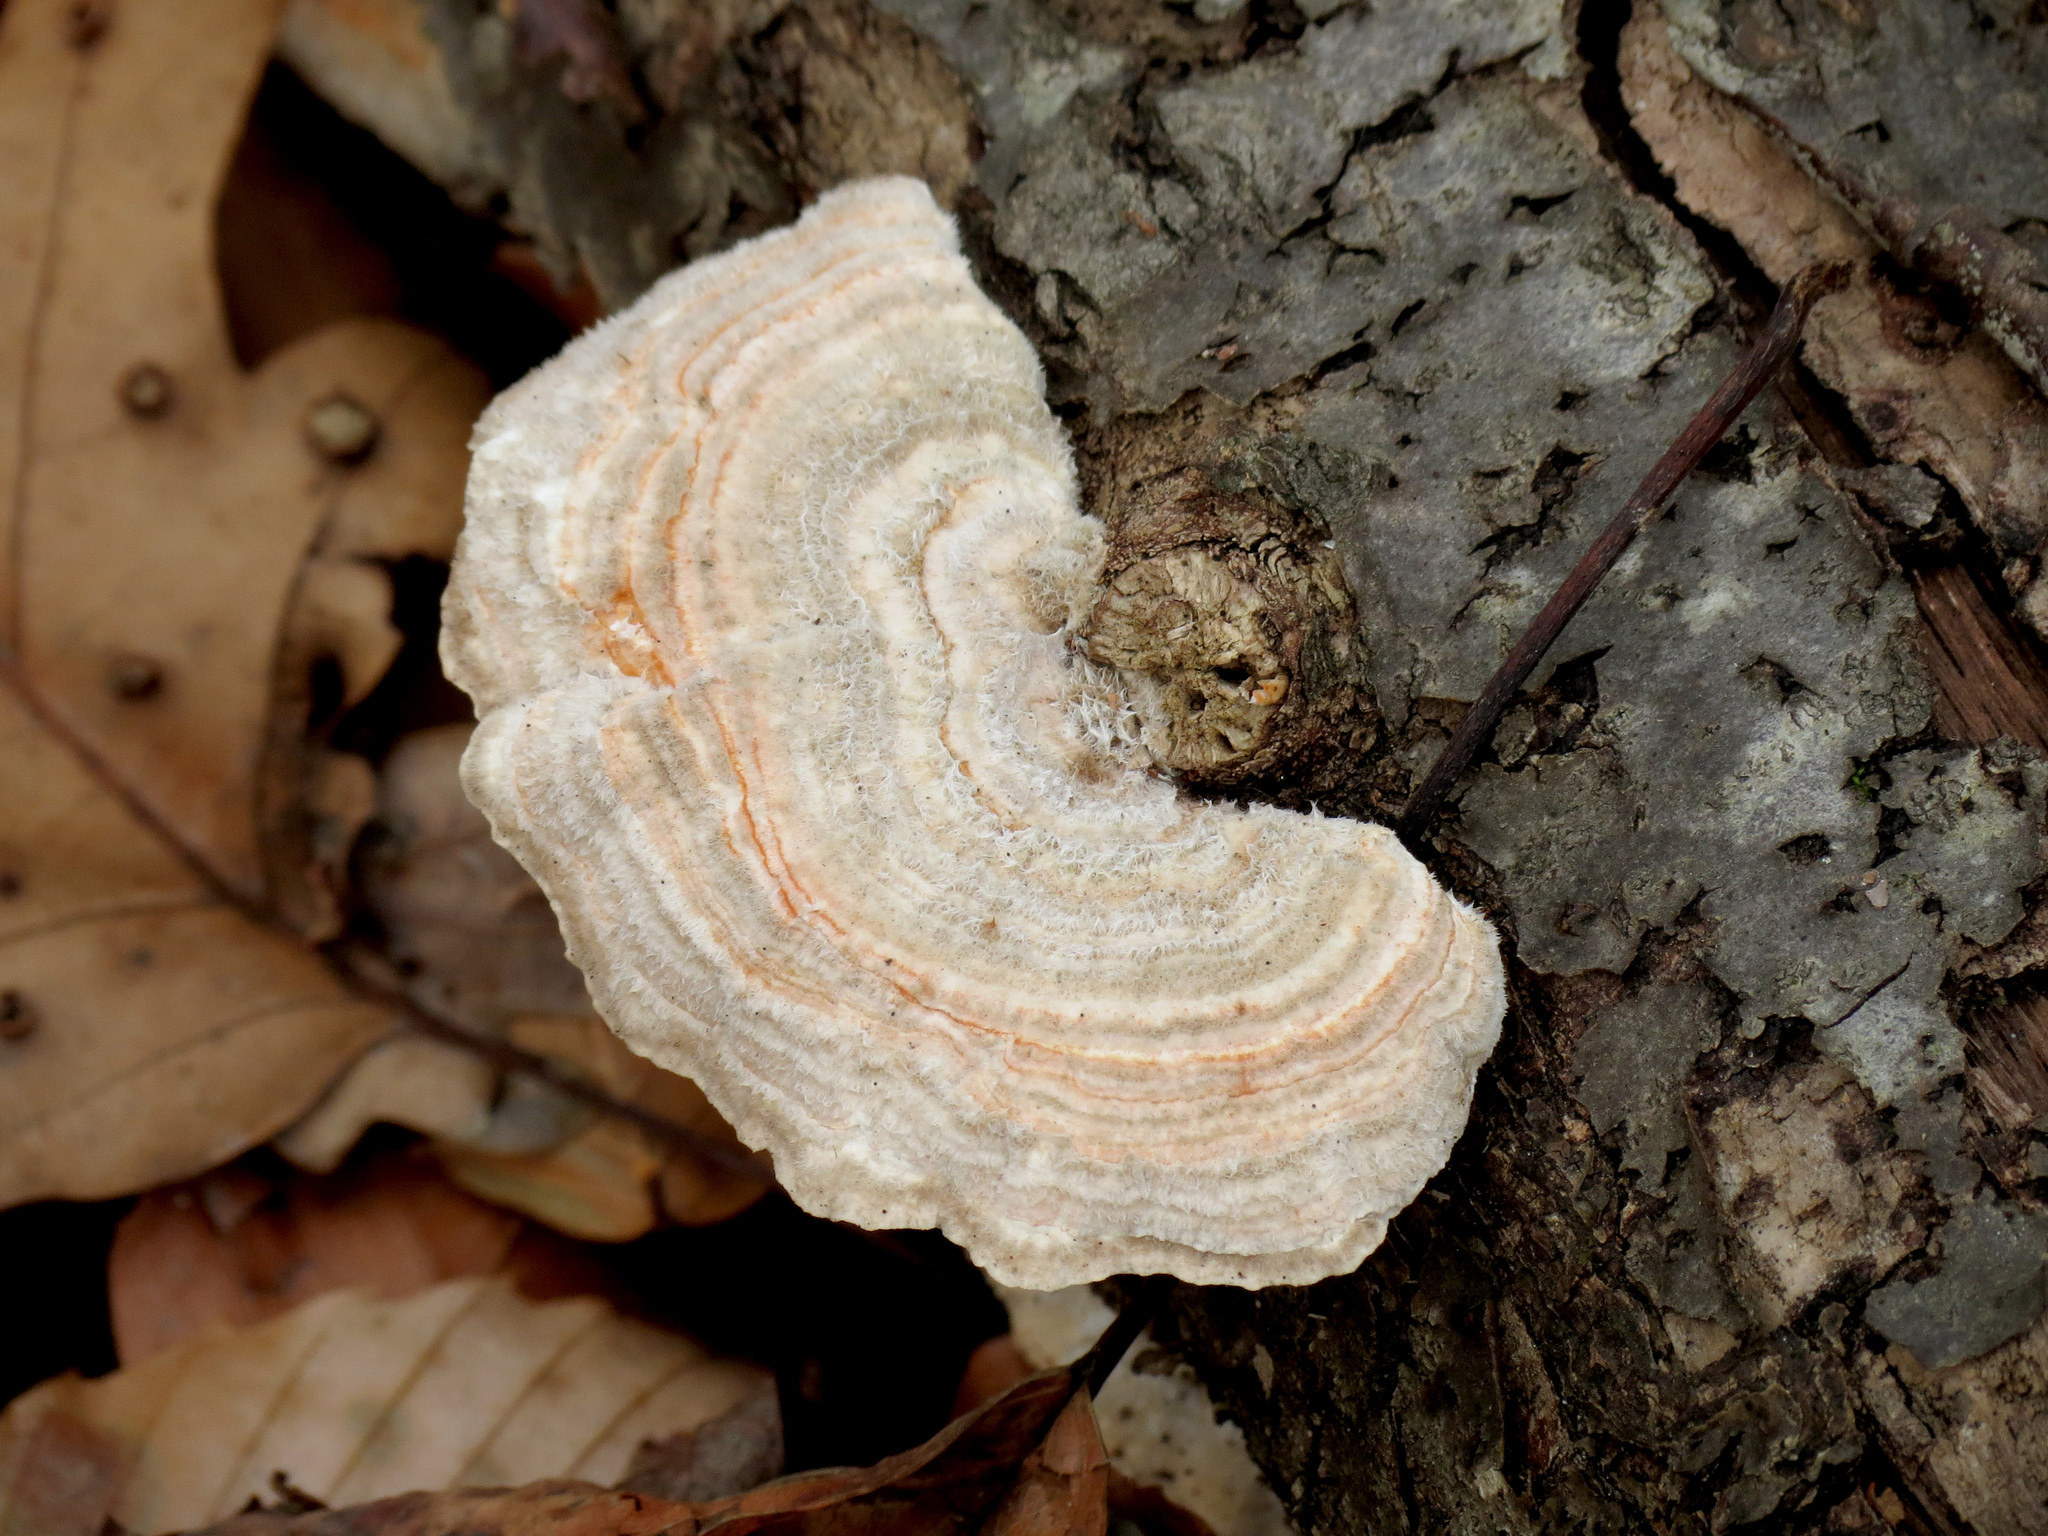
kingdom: Fungi
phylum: Basidiomycota
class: Agaricomycetes
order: Polyporales
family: Polyporaceae
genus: Lenzites
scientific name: Lenzites betulinus
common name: Birch mazegill
